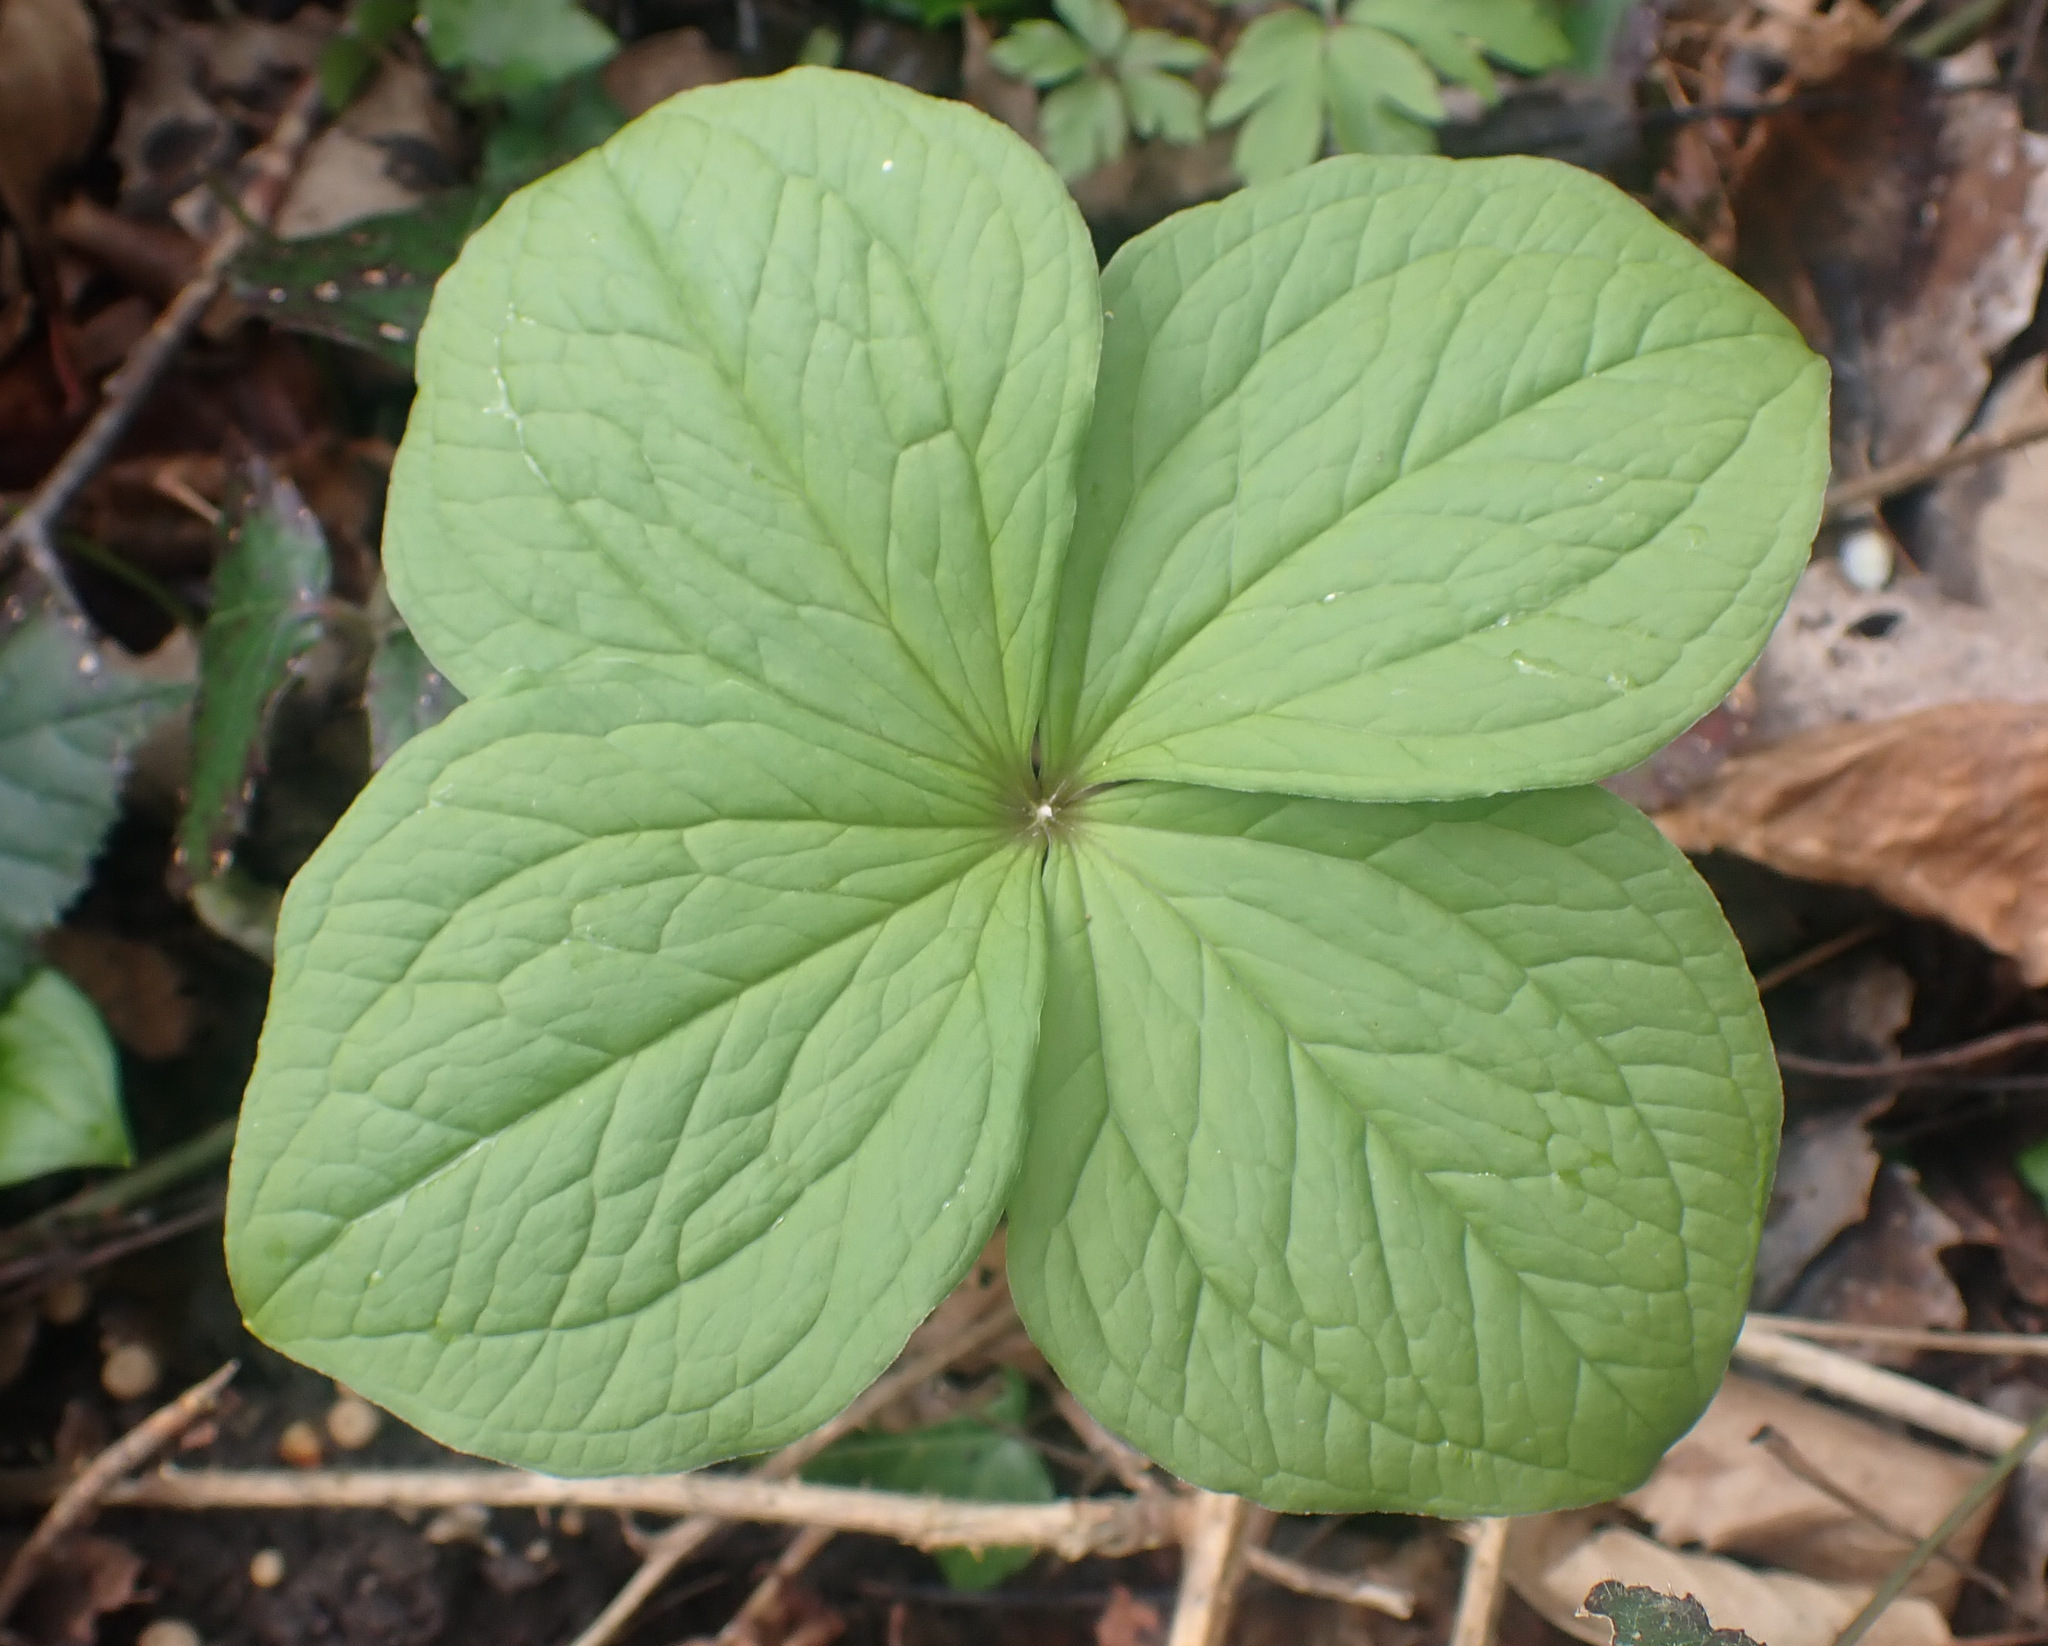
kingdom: Plantae
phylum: Tracheophyta
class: Liliopsida
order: Liliales
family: Melanthiaceae
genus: Paris
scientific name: Paris quadrifolia
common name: Herb-paris
